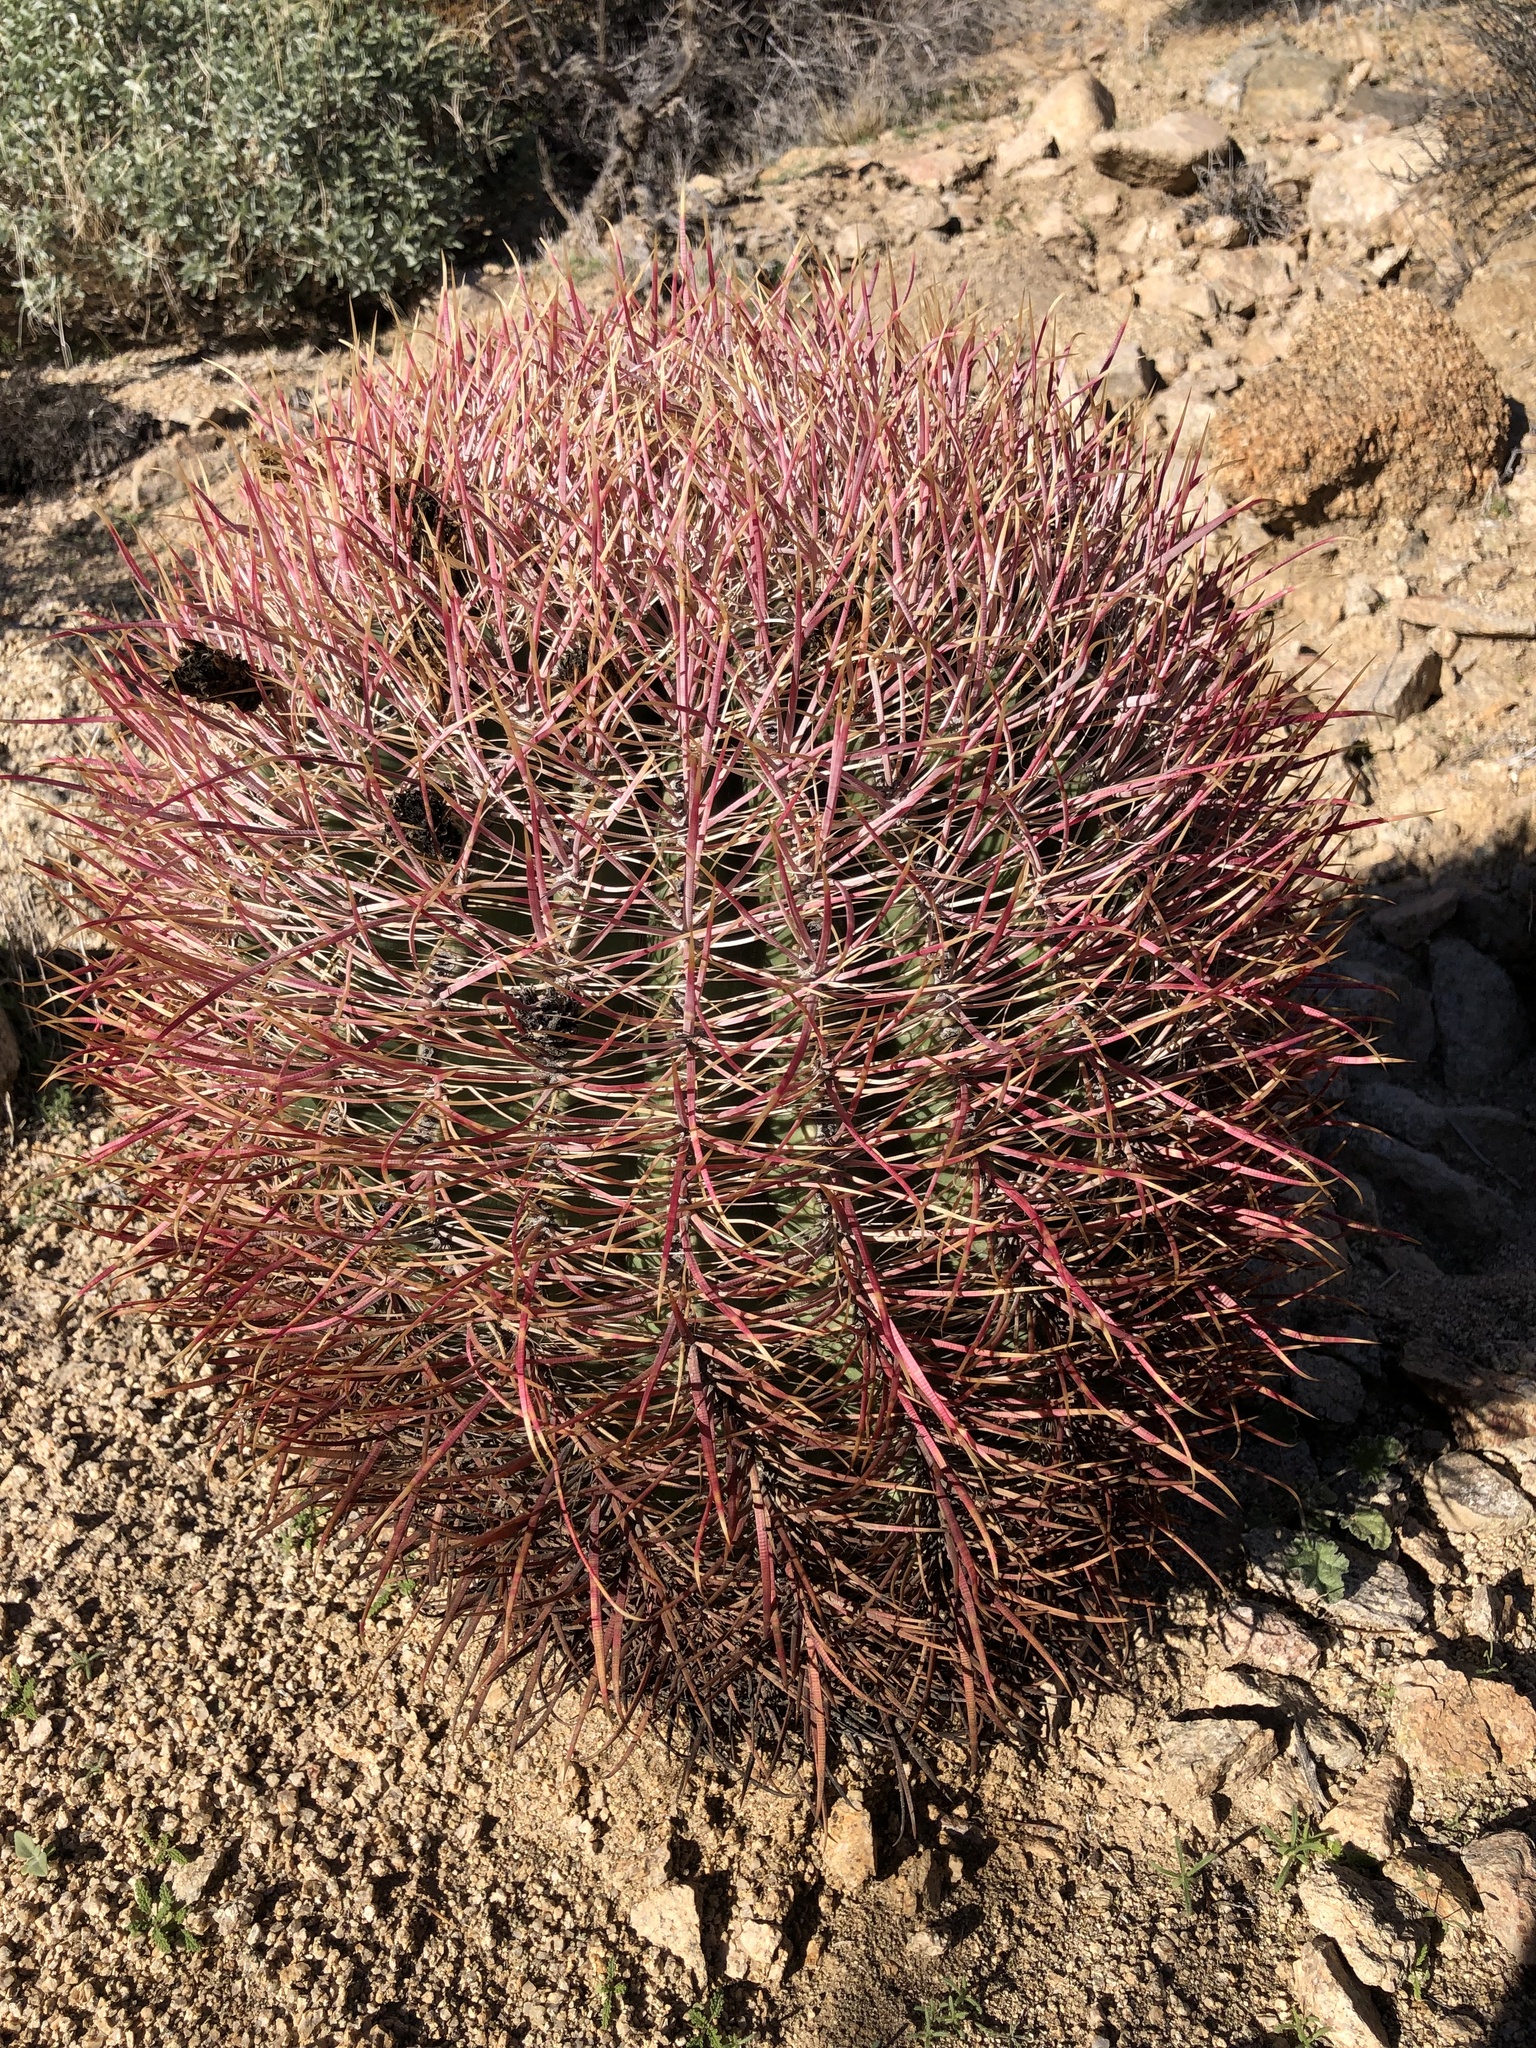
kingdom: Plantae
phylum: Tracheophyta
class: Magnoliopsida
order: Caryophyllales
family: Cactaceae
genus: Ferocactus
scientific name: Ferocactus cylindraceus
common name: California barrel cactus
